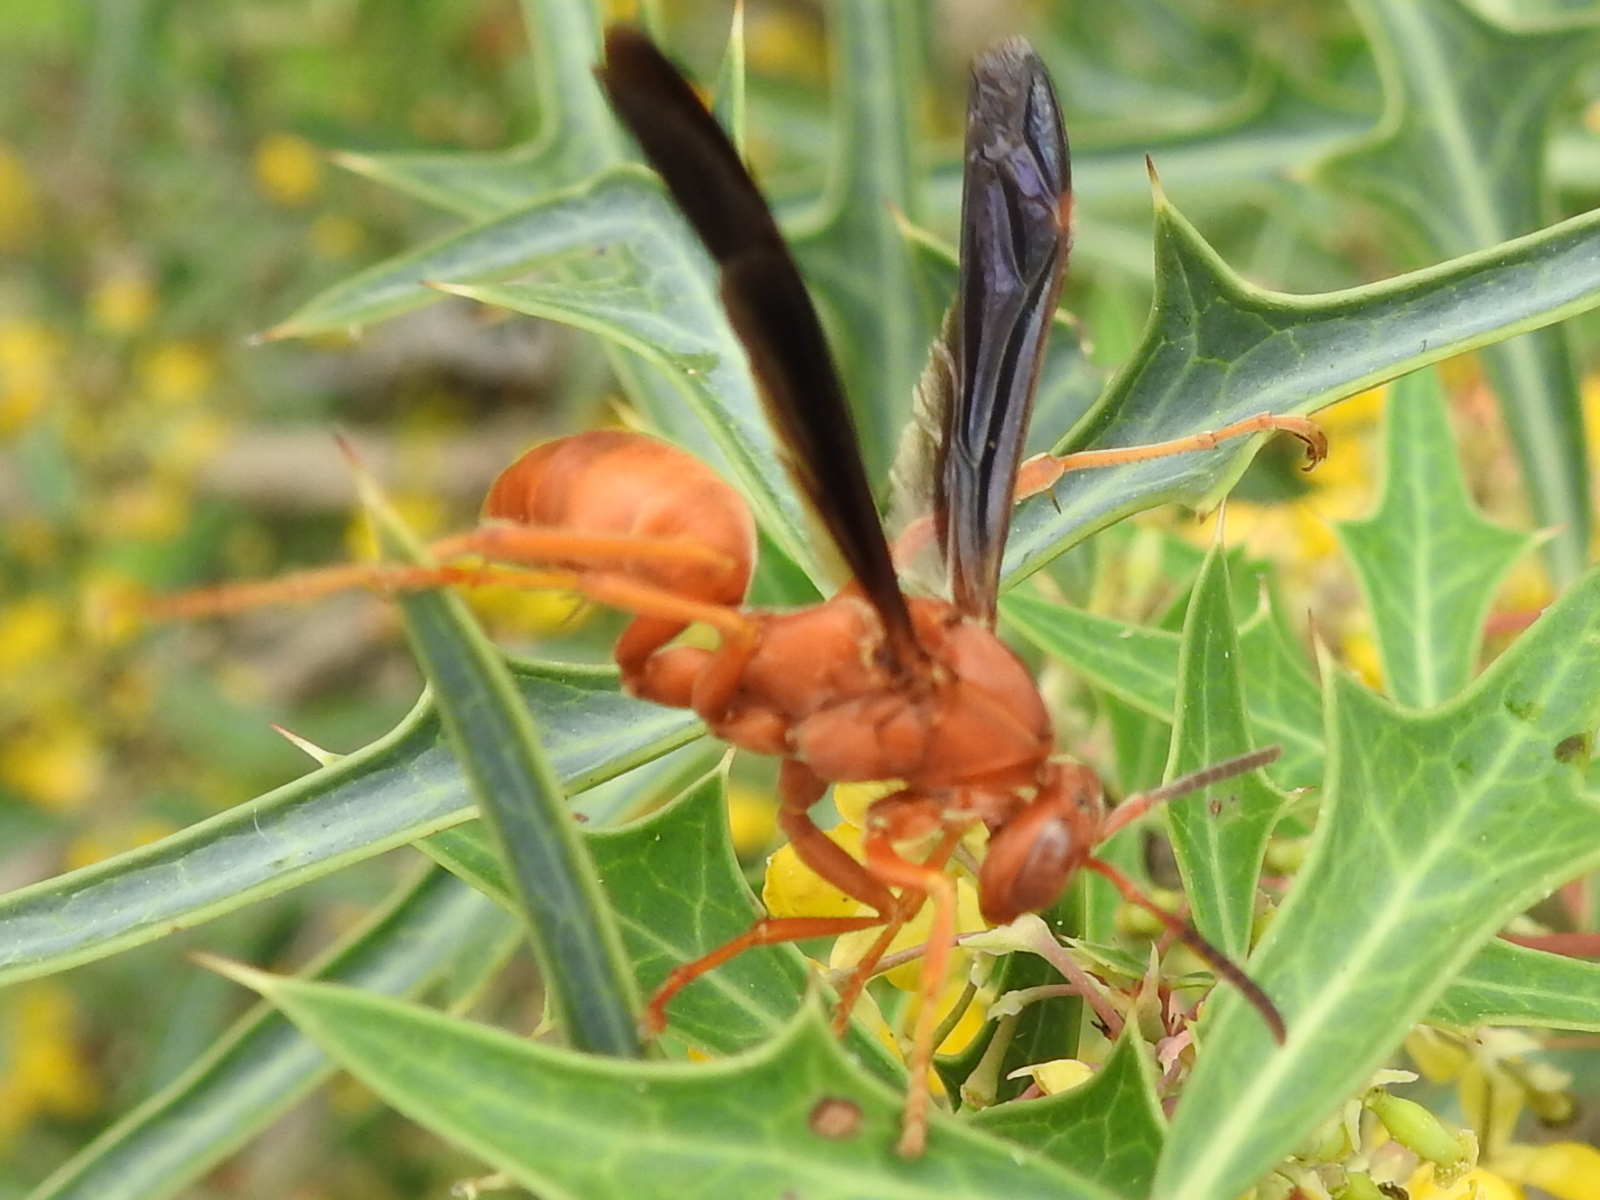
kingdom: Animalia
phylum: Arthropoda
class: Insecta
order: Hymenoptera
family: Eumenidae
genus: Polistes
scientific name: Polistes carolina
